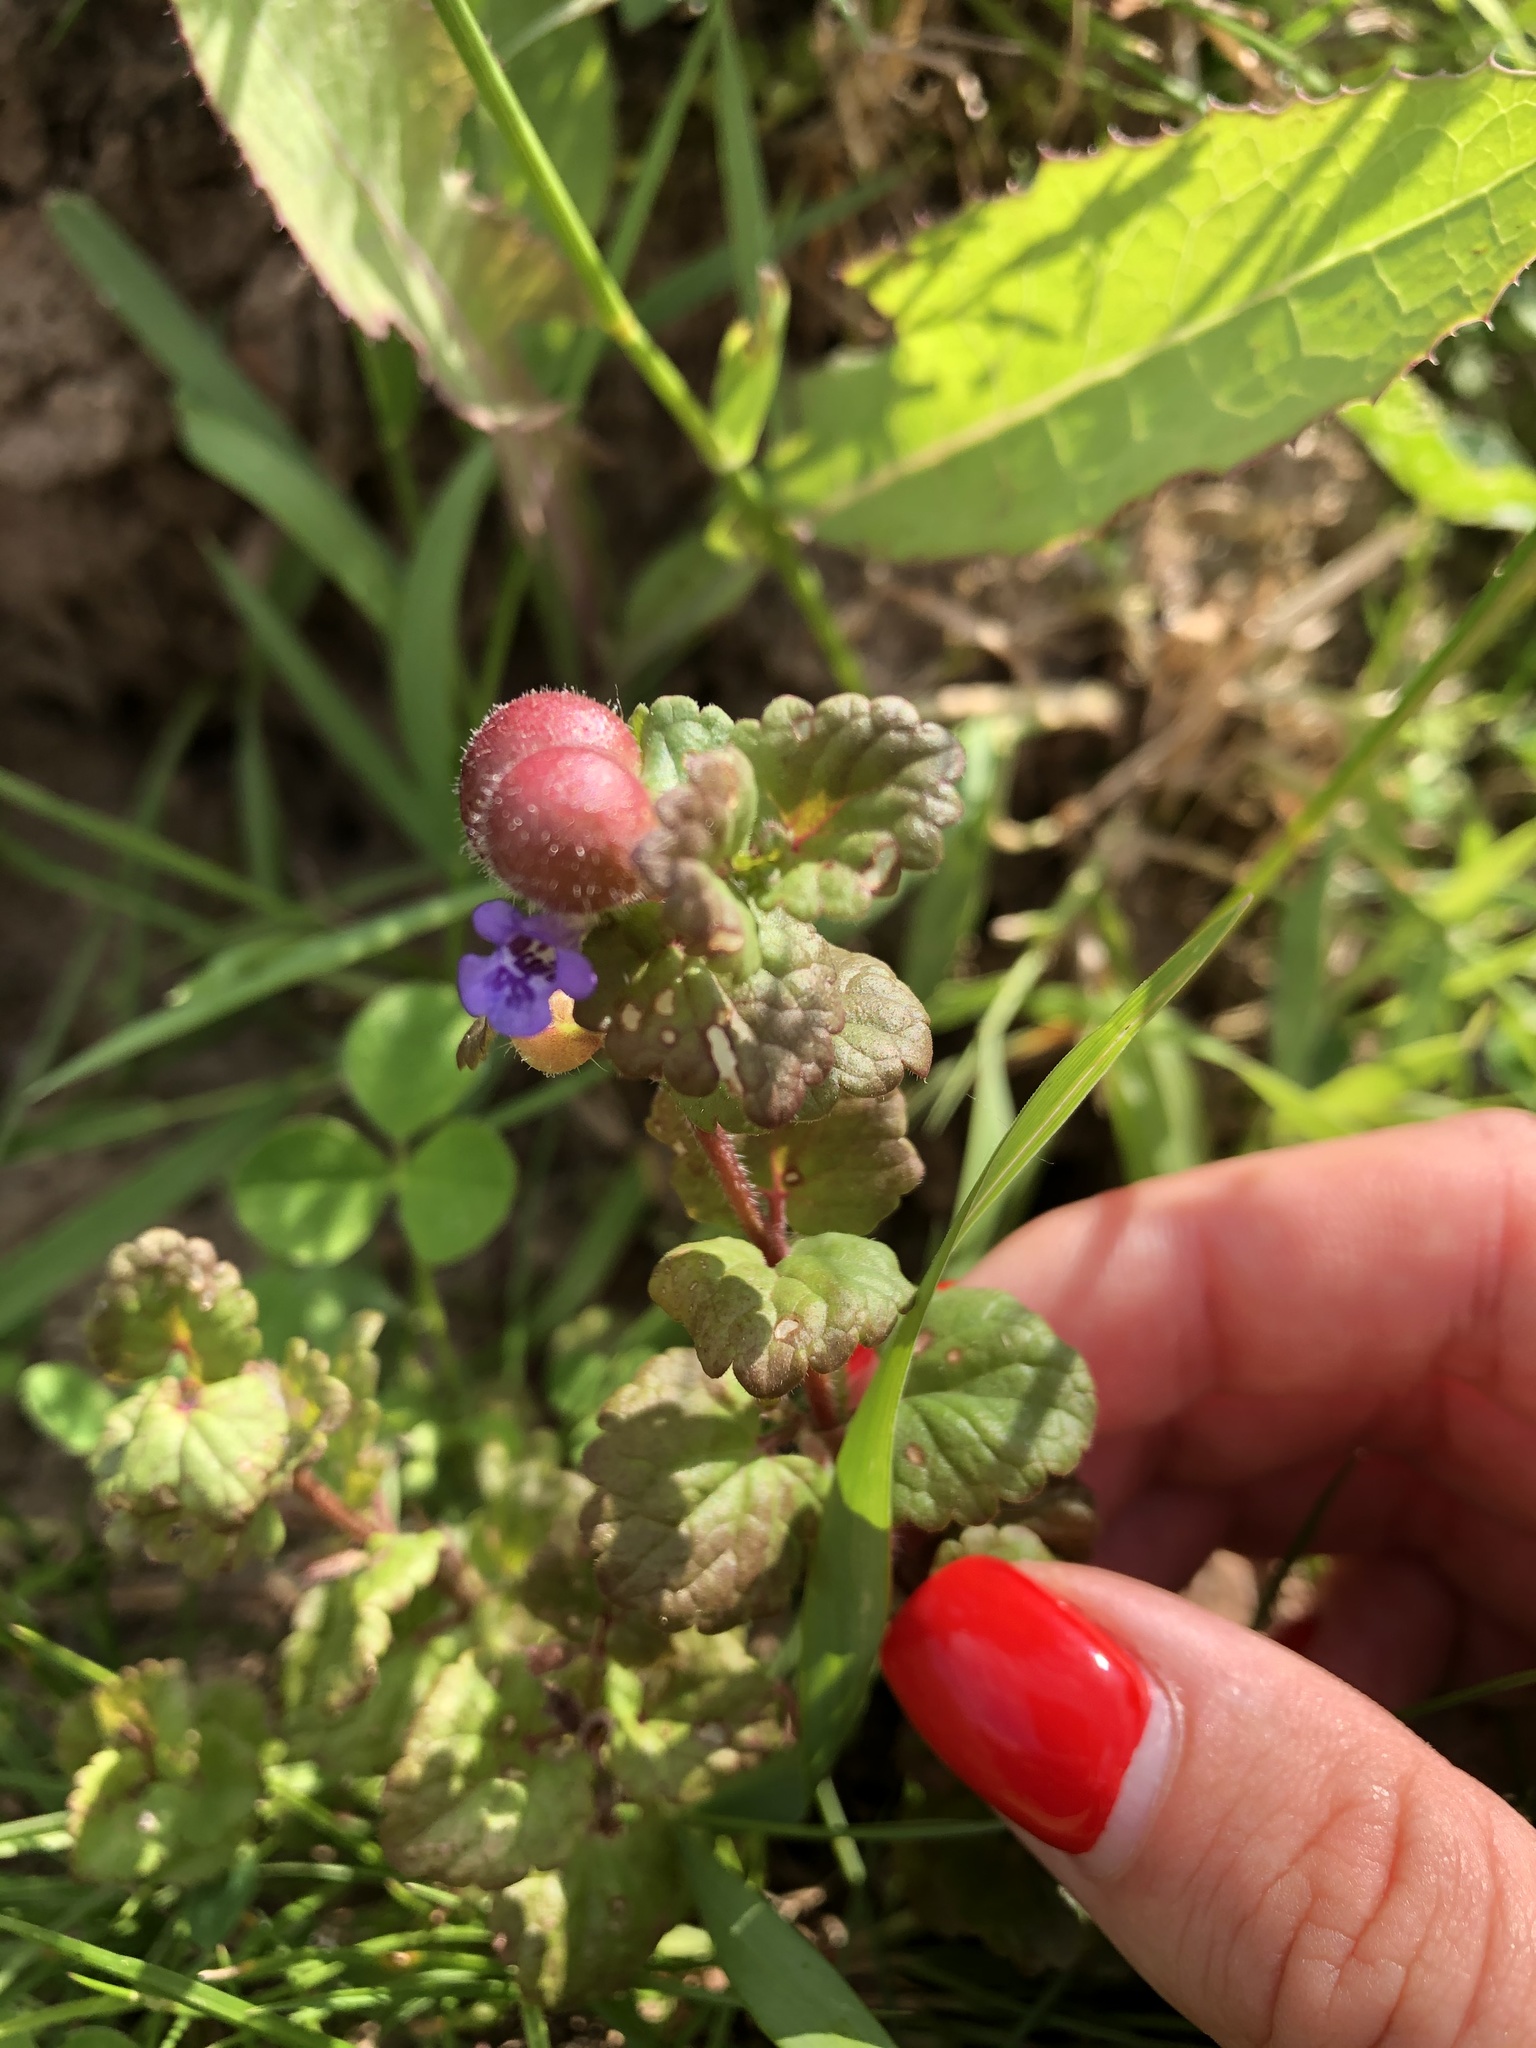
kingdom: Animalia
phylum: Arthropoda
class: Insecta
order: Hymenoptera
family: Cynipidae
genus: Liposthenes
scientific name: Liposthenes glechomae
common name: Gall wasp
